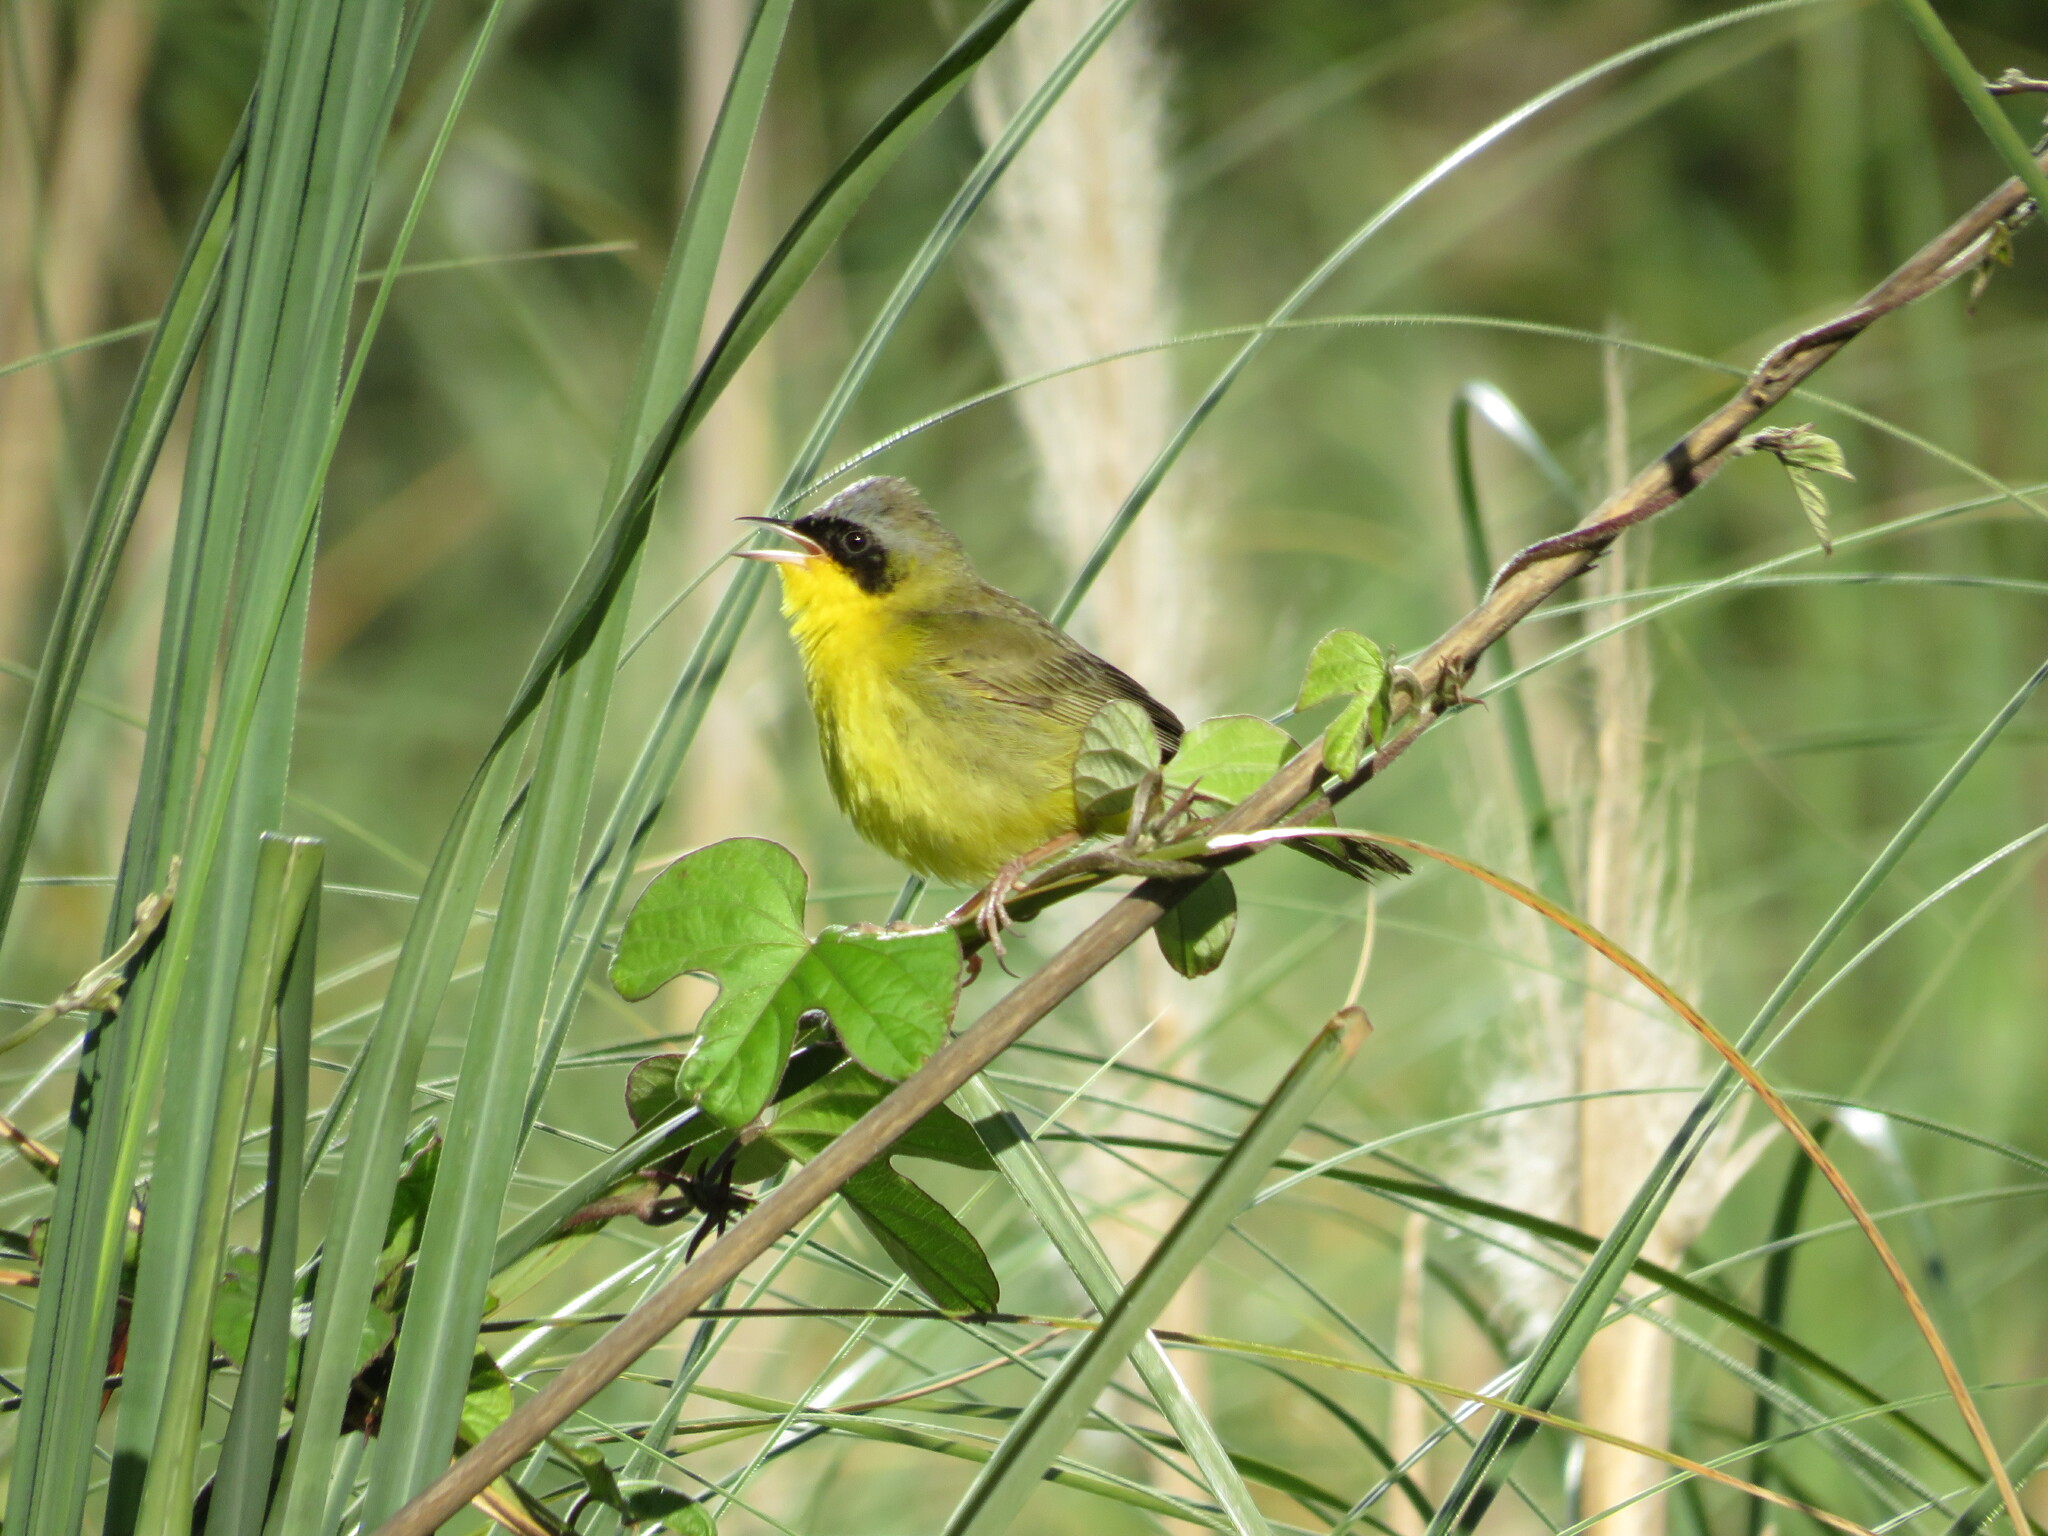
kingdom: Animalia
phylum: Chordata
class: Aves
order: Passeriformes
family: Parulidae
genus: Geothlypis
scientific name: Geothlypis velata
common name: Southern yellowthroat
